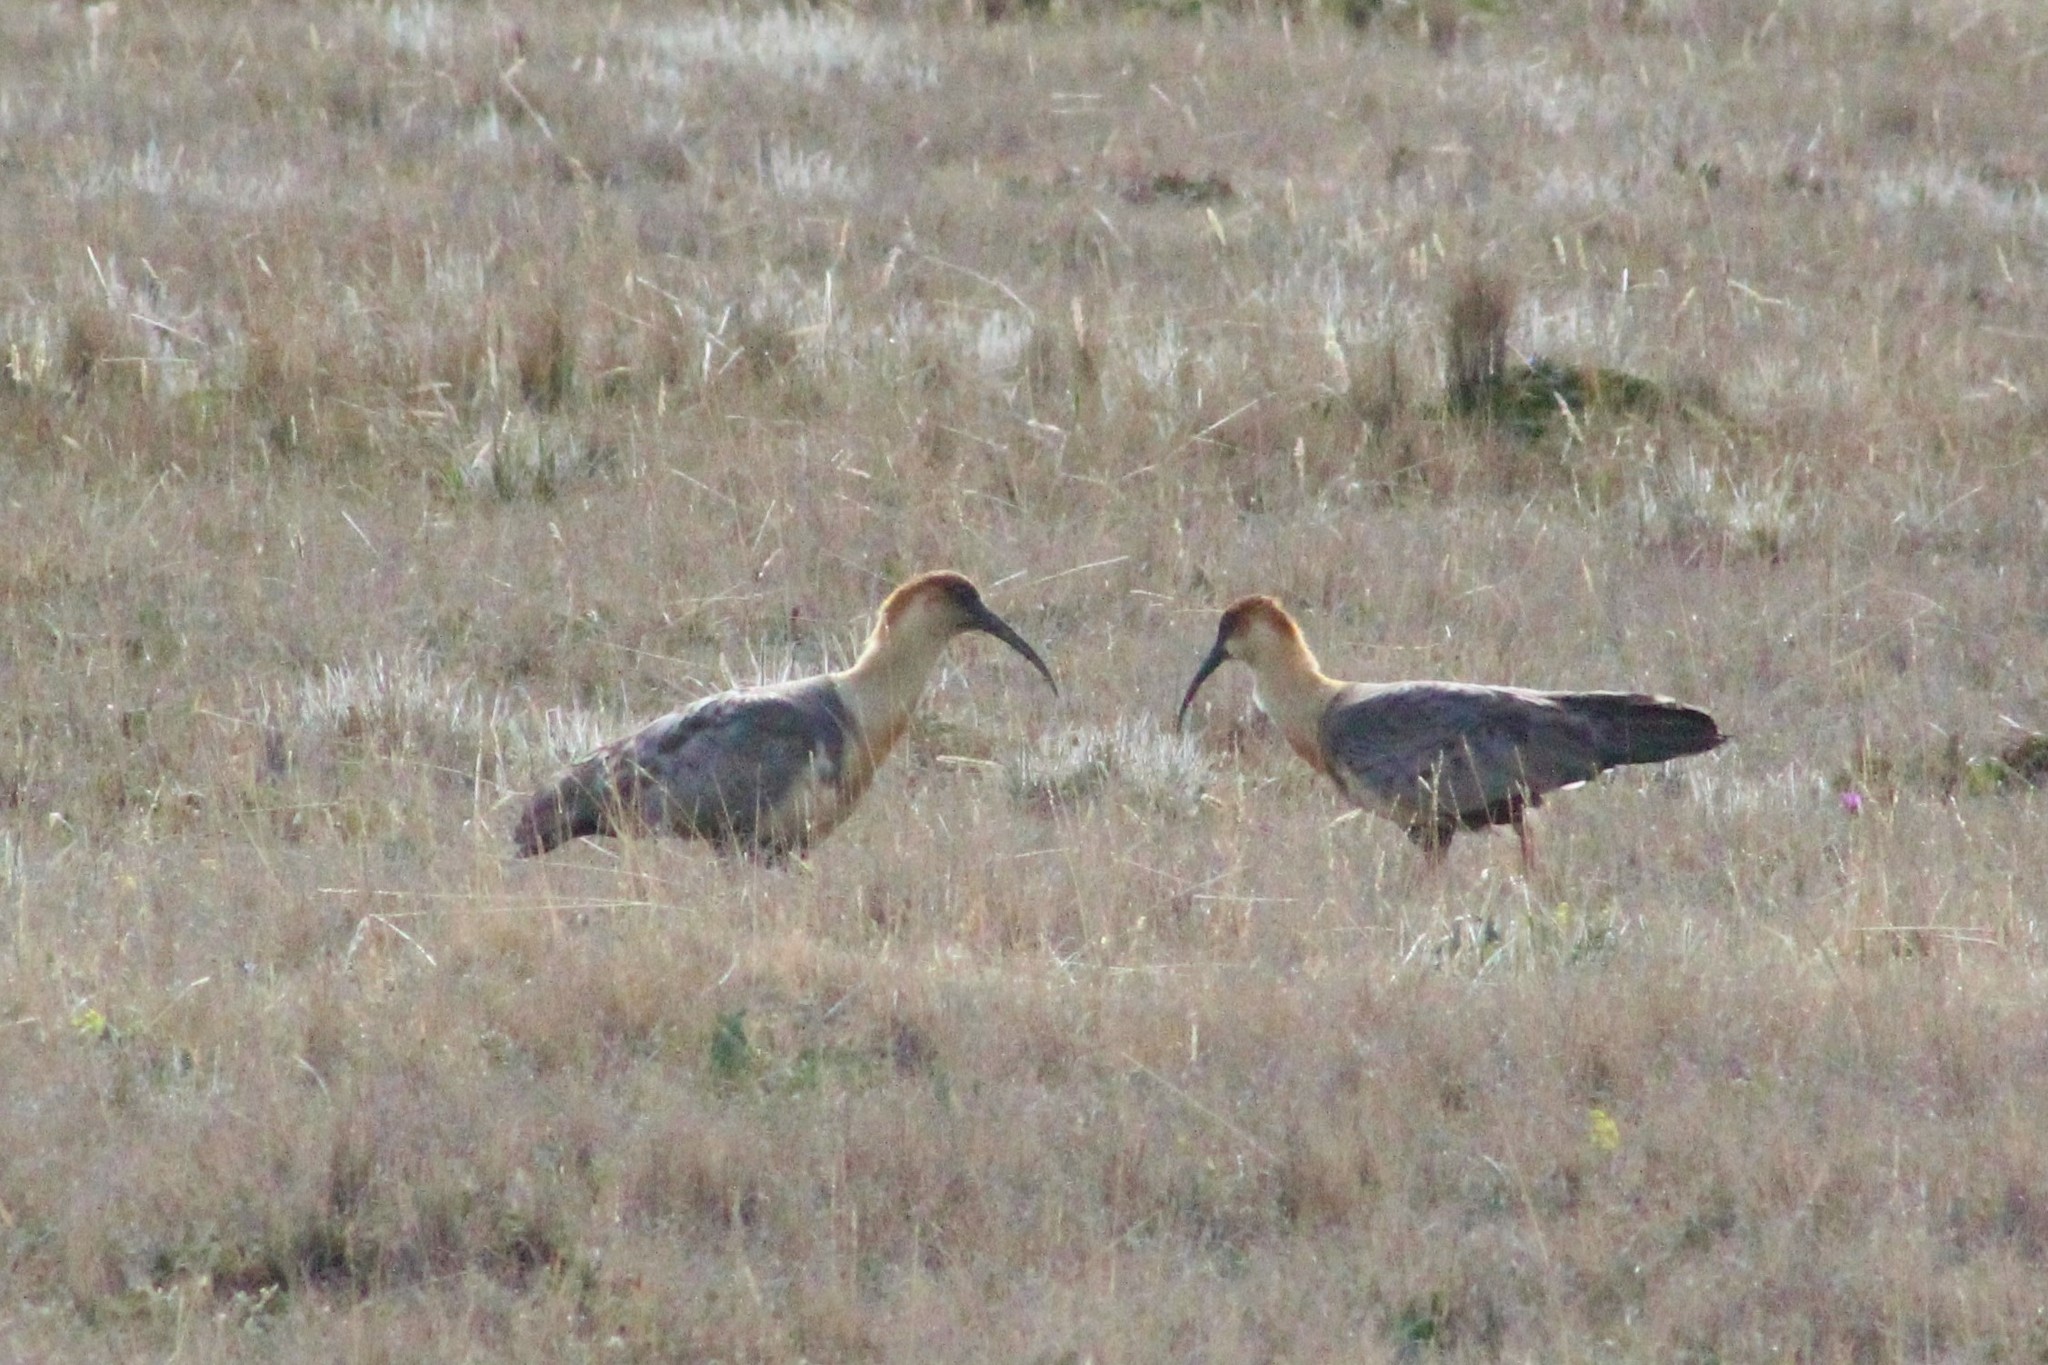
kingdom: Animalia
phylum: Chordata
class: Aves
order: Pelecaniformes
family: Threskiornithidae
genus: Theristicus
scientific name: Theristicus melanopis
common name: Black-faced ibis
